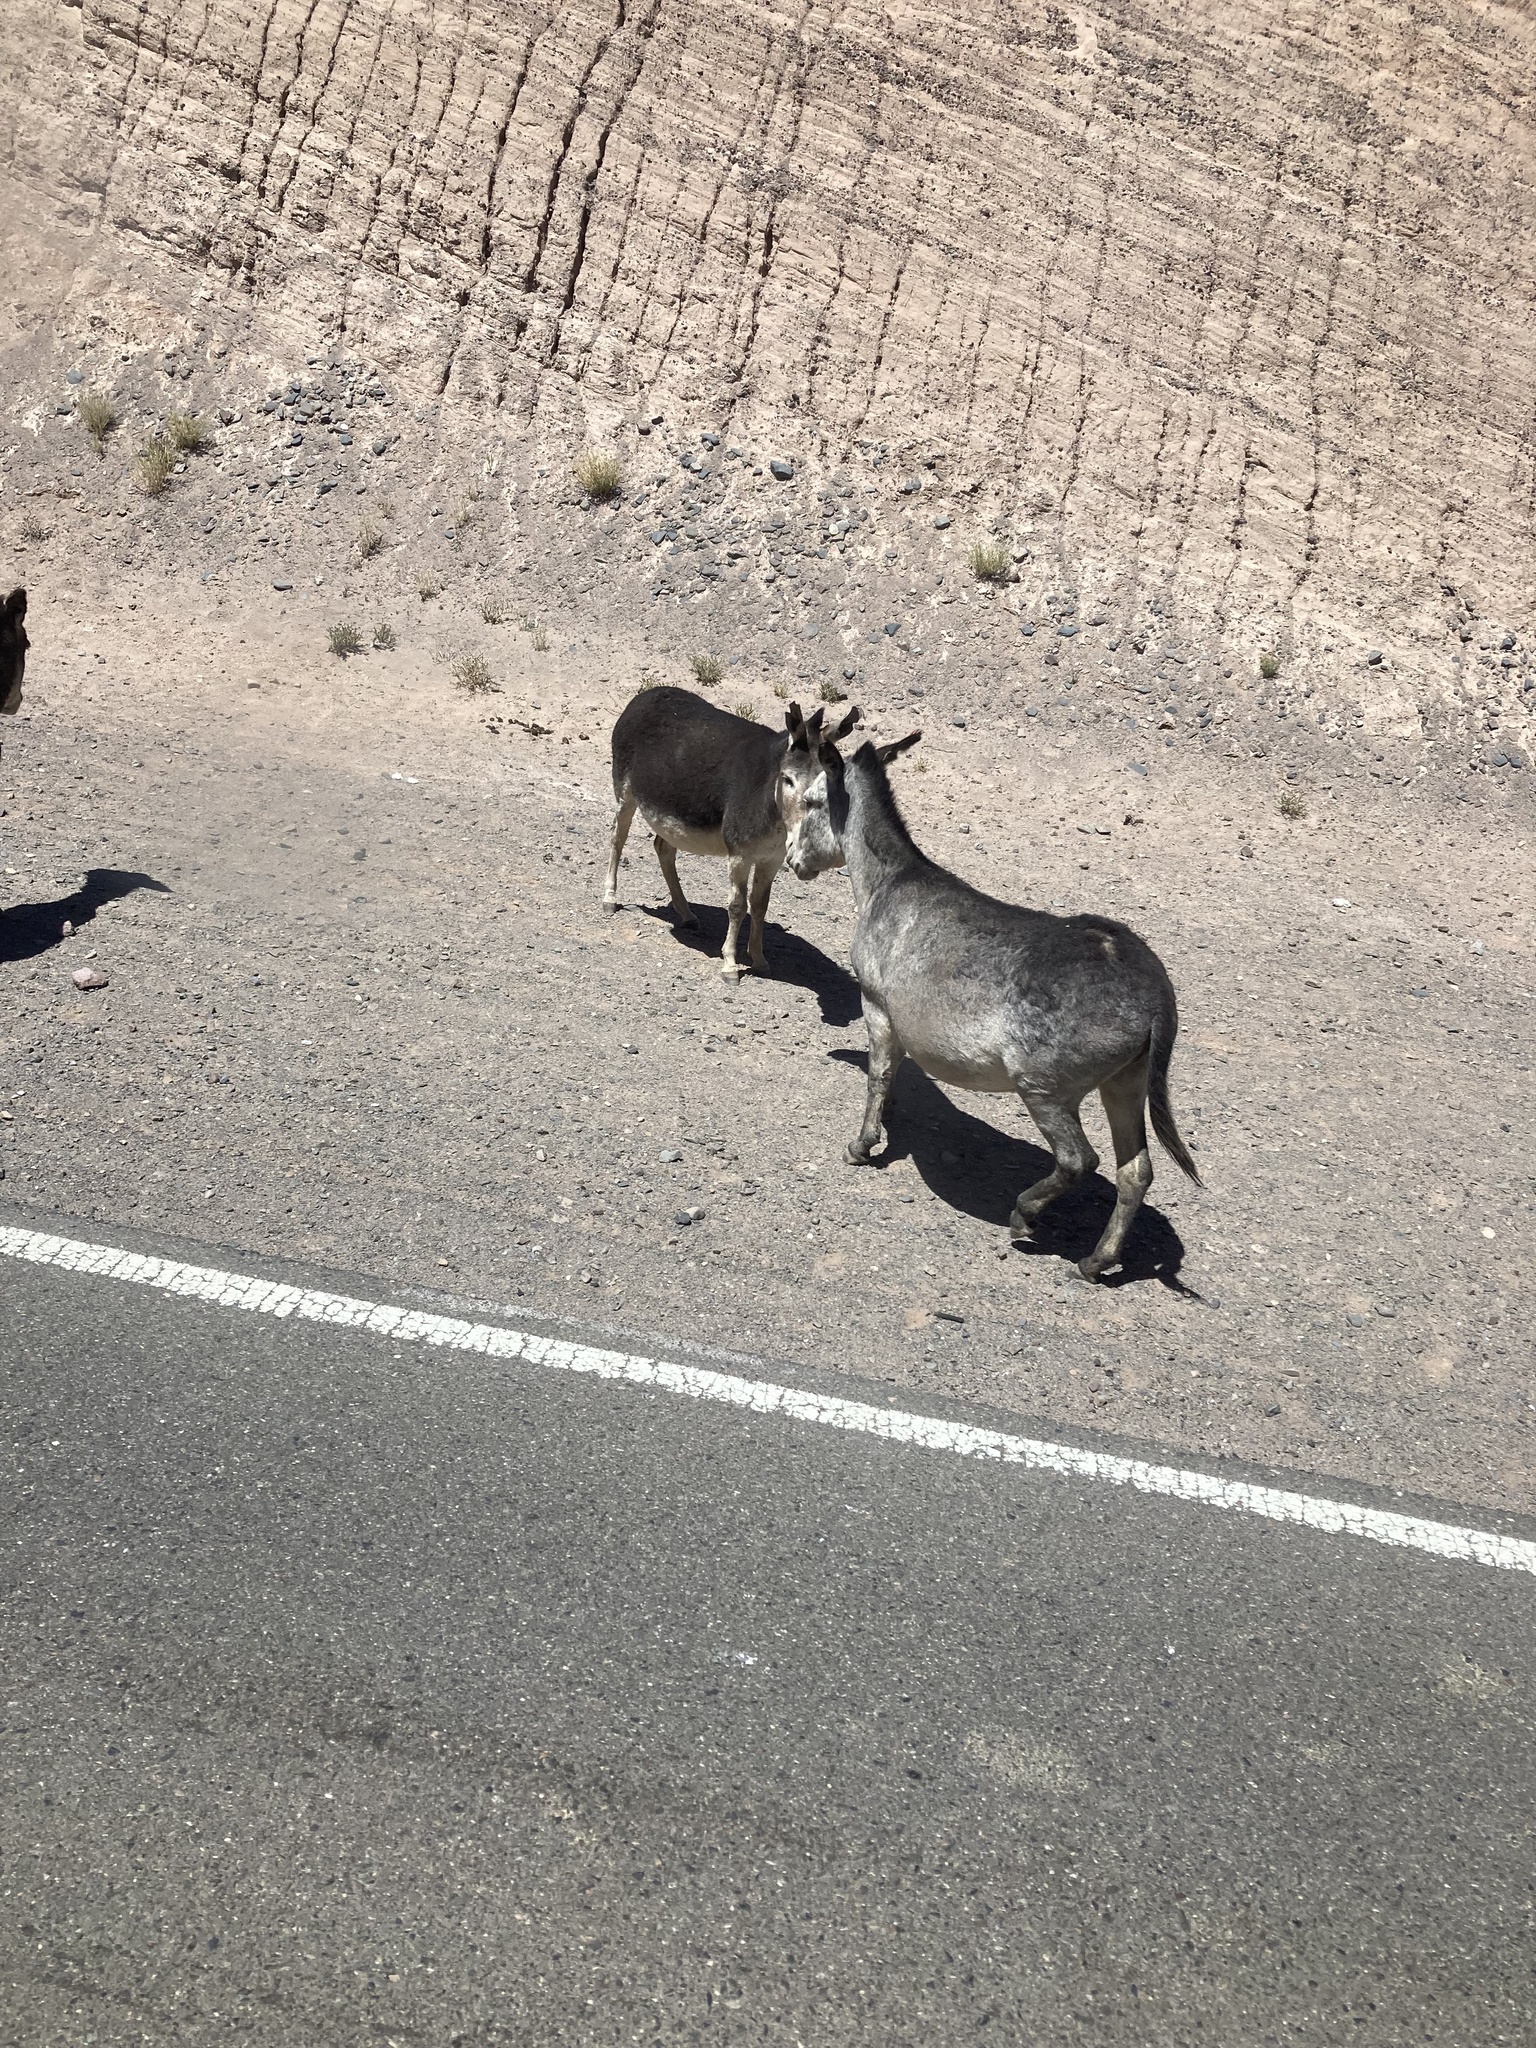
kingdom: Animalia
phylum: Chordata
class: Mammalia
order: Perissodactyla
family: Equidae
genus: Equus
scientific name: Equus asinus
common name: Ass
